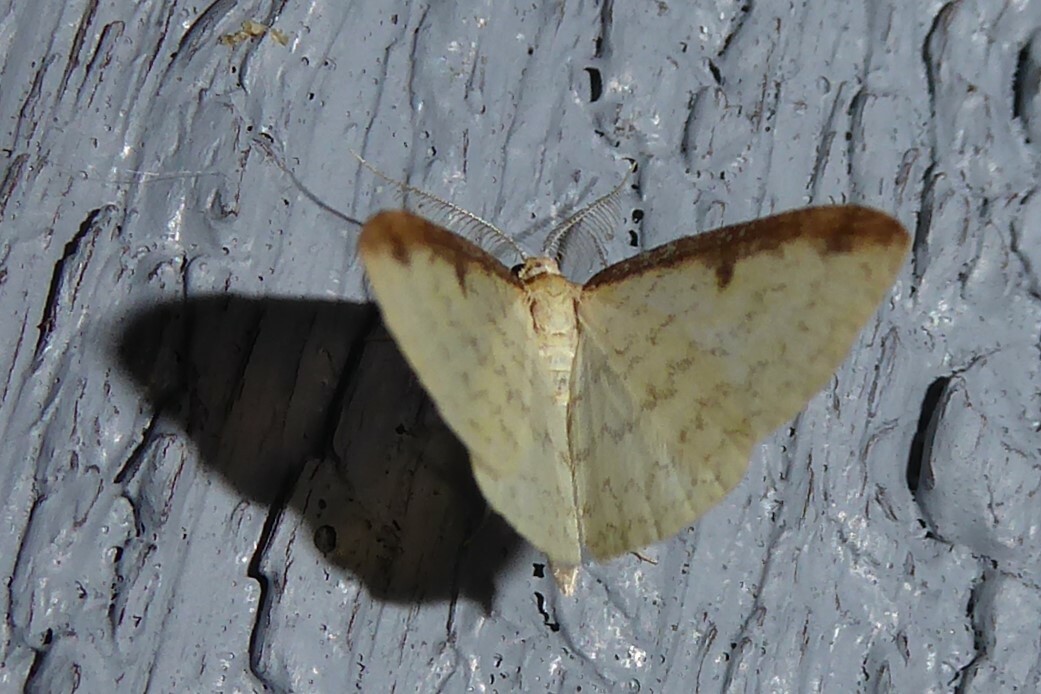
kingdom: Animalia
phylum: Arthropoda
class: Insecta
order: Lepidoptera
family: Geometridae
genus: Epiphryne
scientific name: Epiphryne undosata
